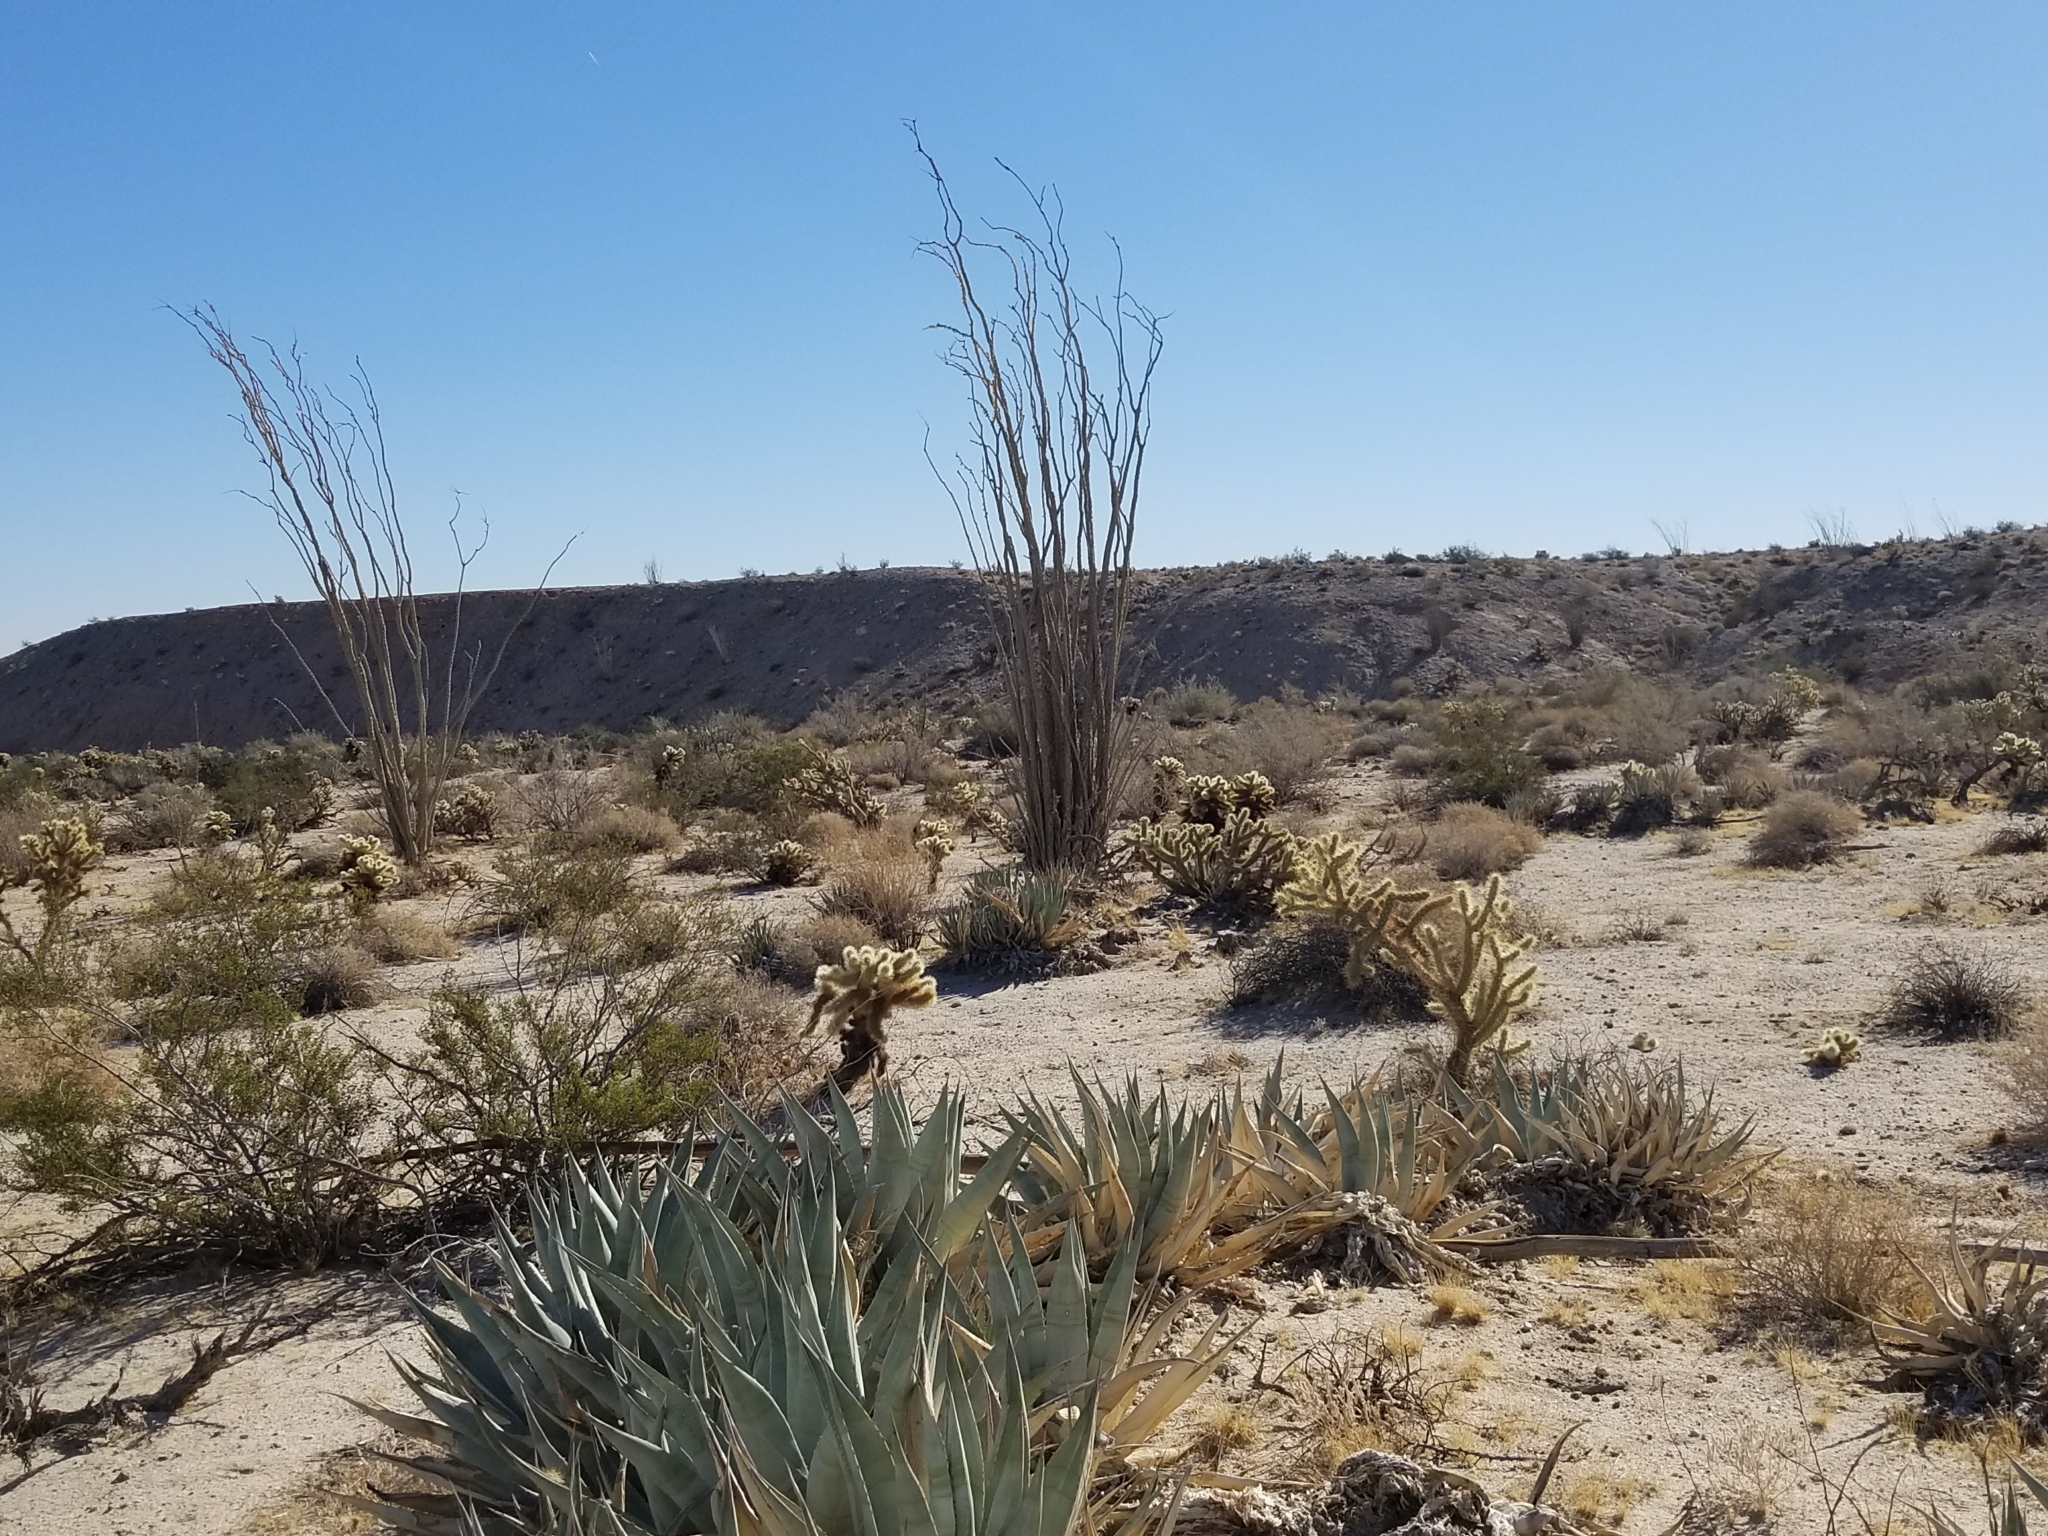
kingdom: Plantae
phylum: Tracheophyta
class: Liliopsida
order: Asparagales
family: Asparagaceae
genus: Agave
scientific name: Agave deserti
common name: Desert agave
